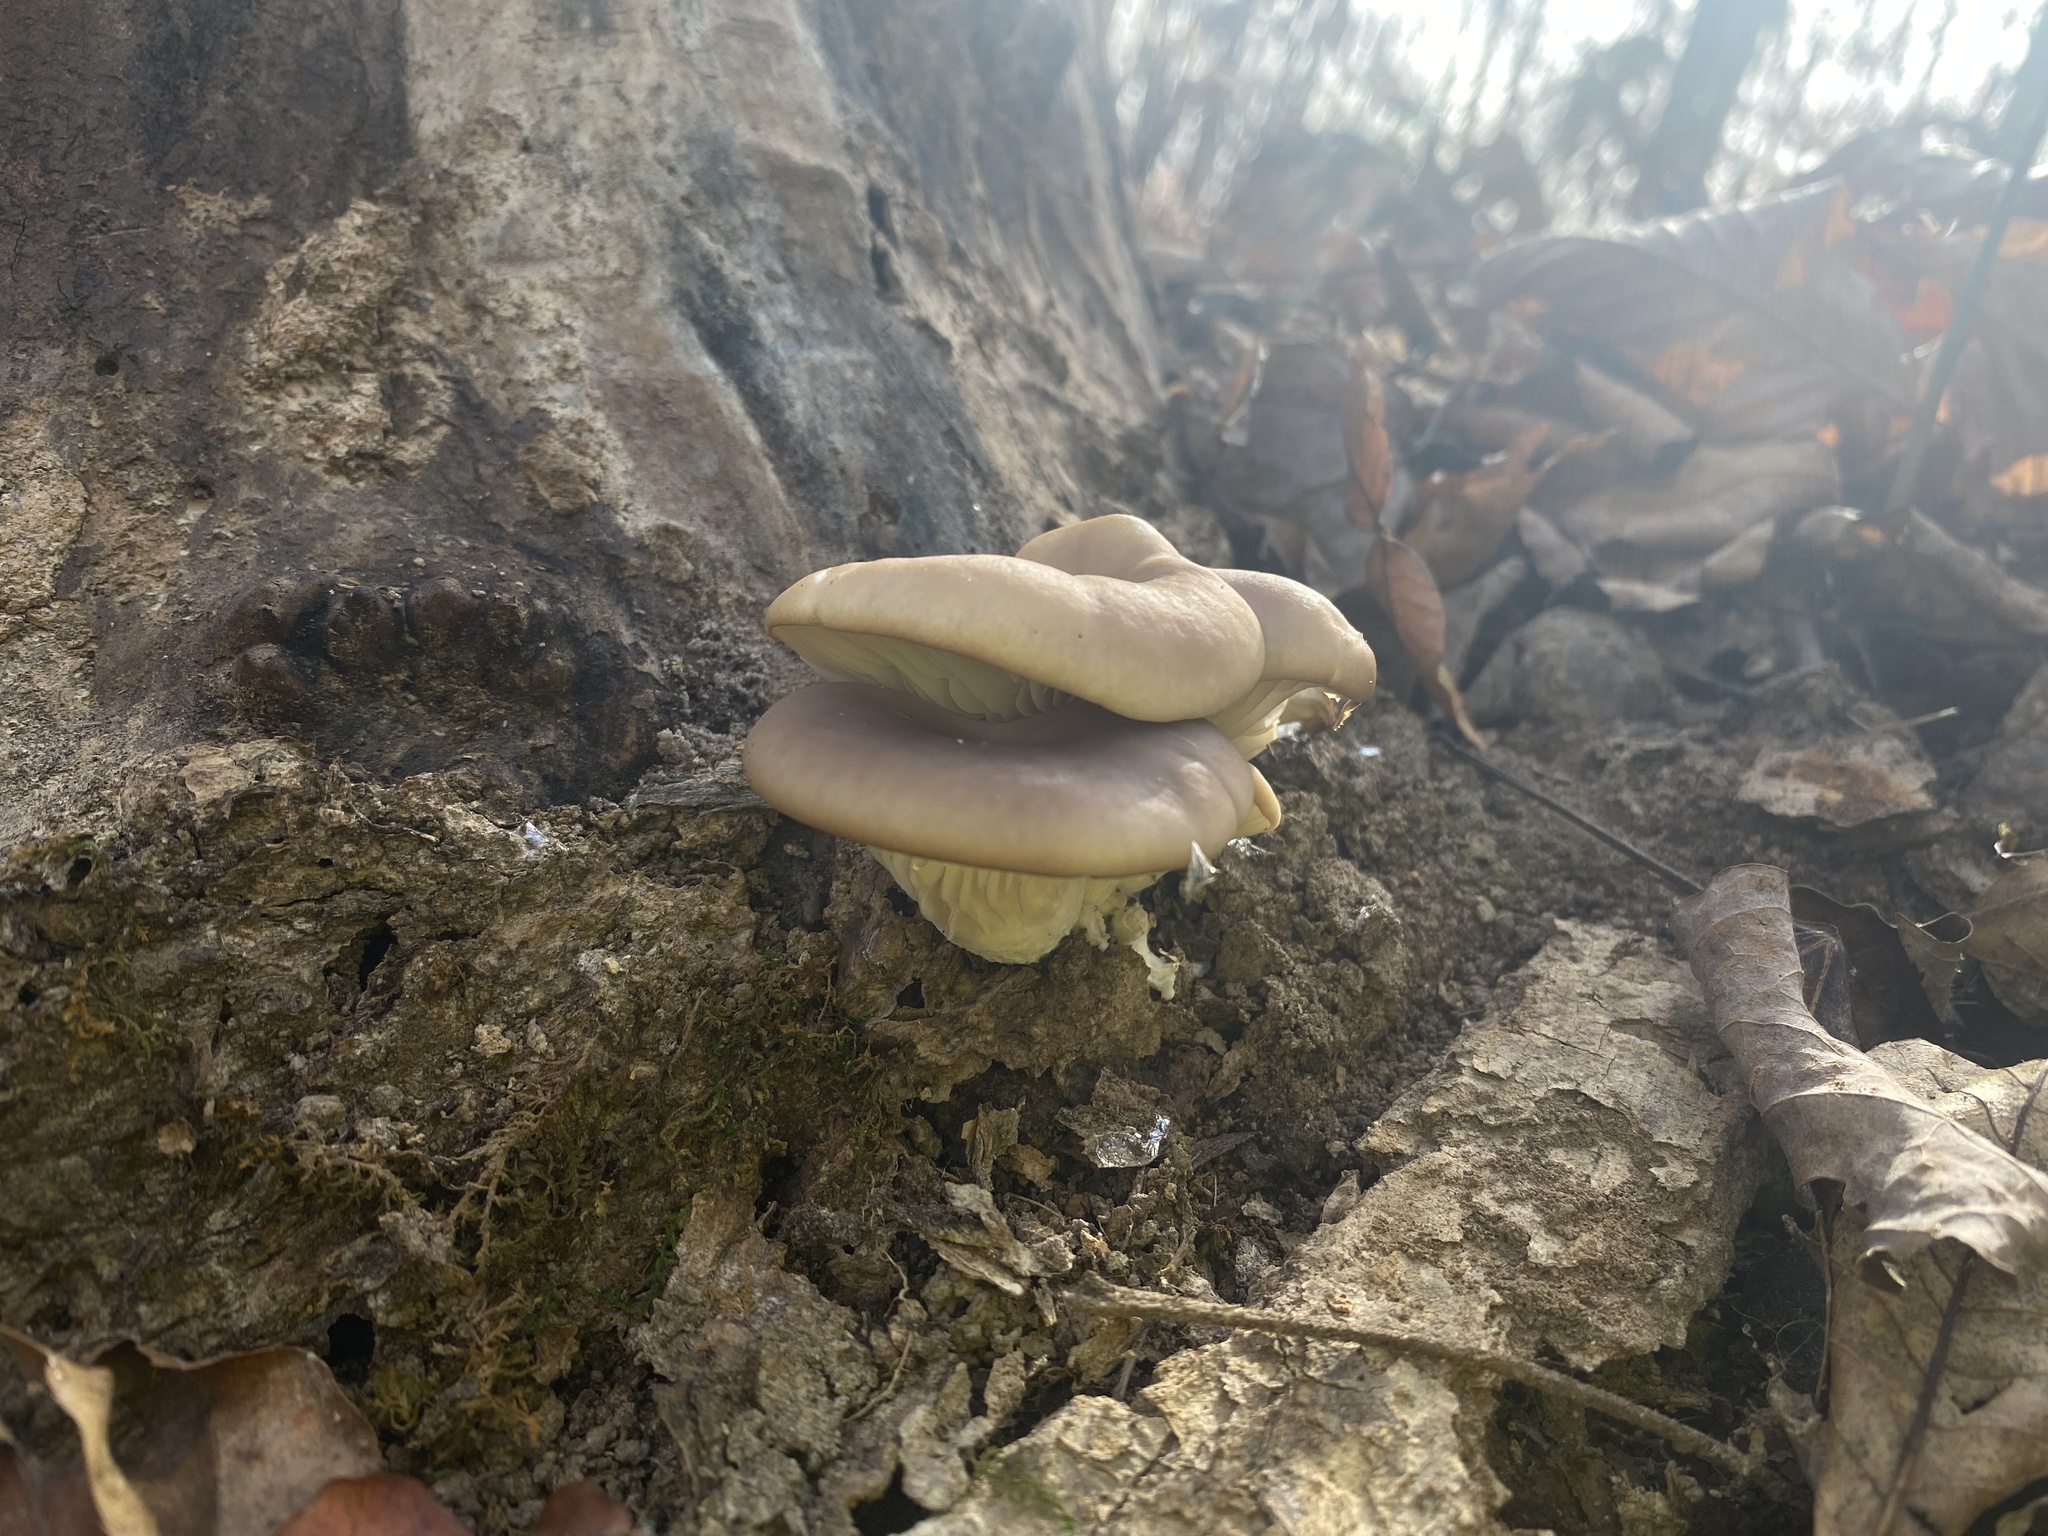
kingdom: Fungi
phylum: Basidiomycota
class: Agaricomycetes
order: Agaricales
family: Pleurotaceae
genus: Pleurotus
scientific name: Pleurotus ostreatus
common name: Oyster mushroom
